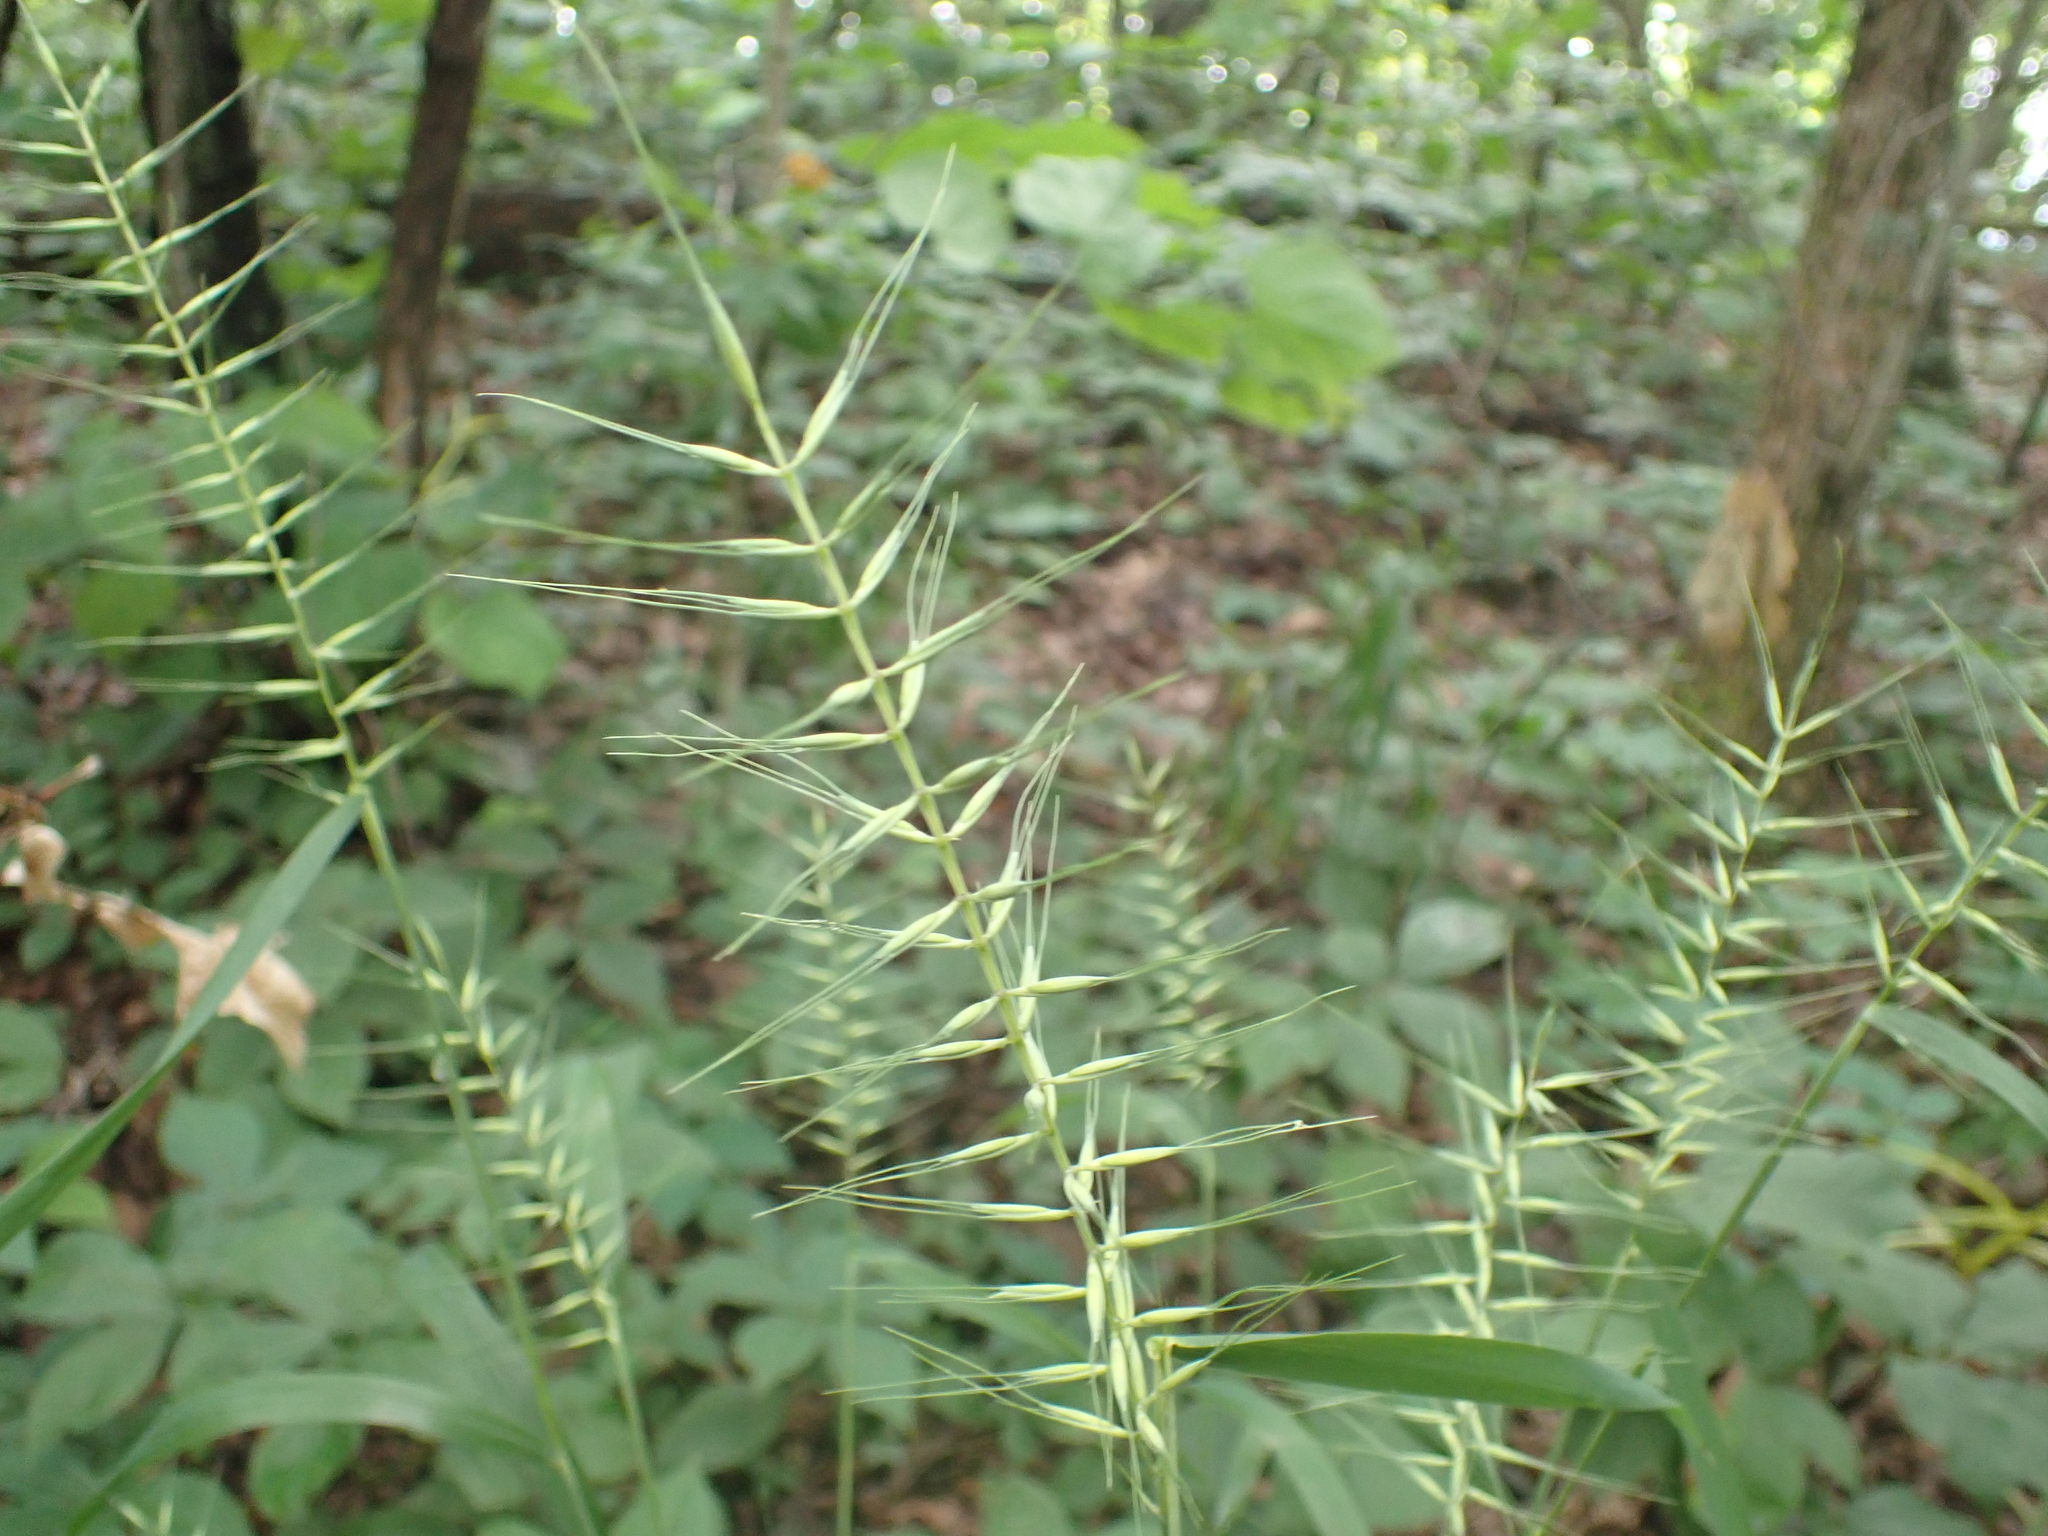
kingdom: Plantae
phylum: Tracheophyta
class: Liliopsida
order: Poales
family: Poaceae
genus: Elymus
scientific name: Elymus hystrix
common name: Bottlebrush grass
